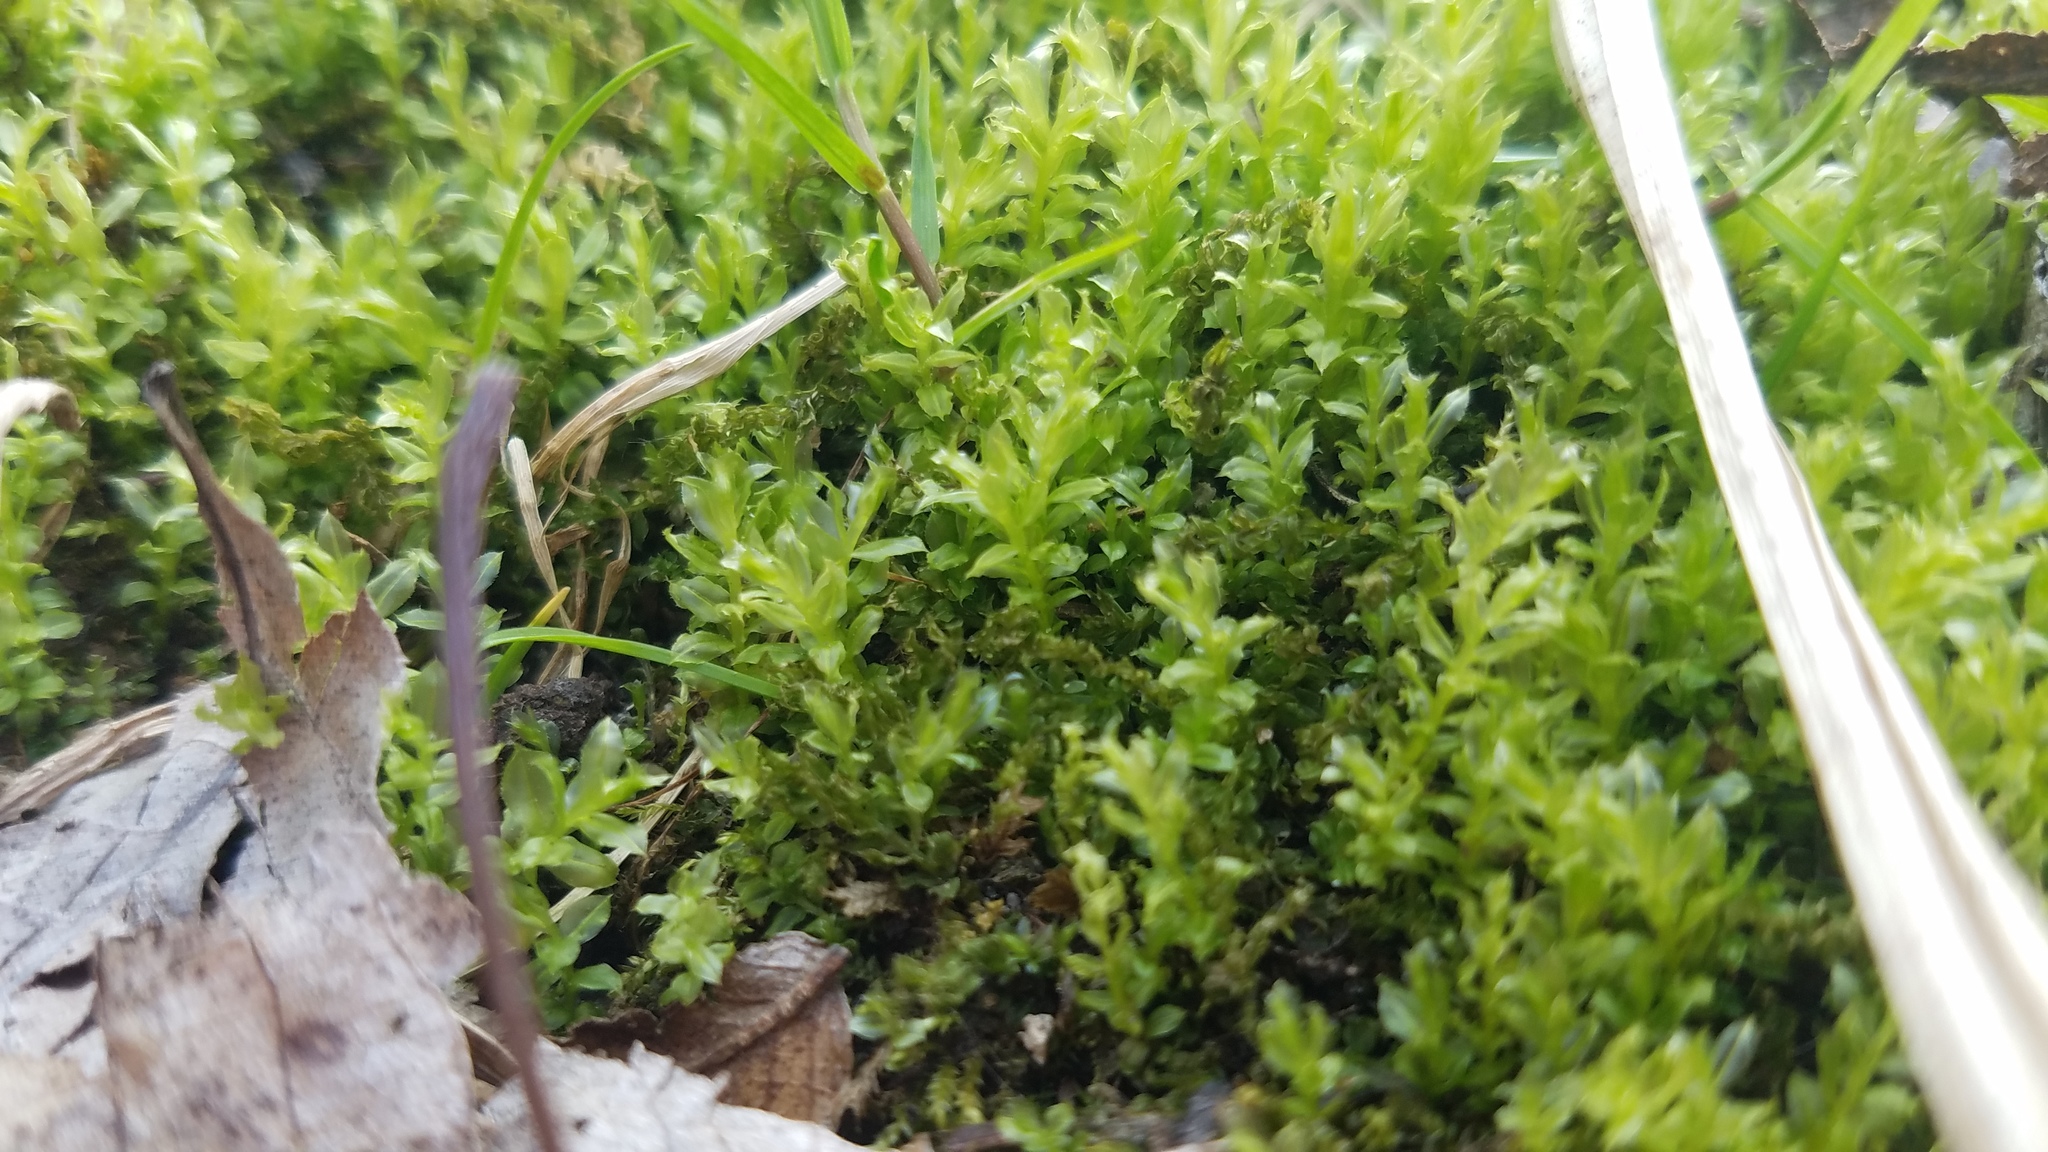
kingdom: Plantae
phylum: Bryophyta
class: Bryopsida
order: Bryales
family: Mniaceae
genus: Plagiomnium
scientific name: Plagiomnium cuspidatum
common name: Woodsy leafy moss
